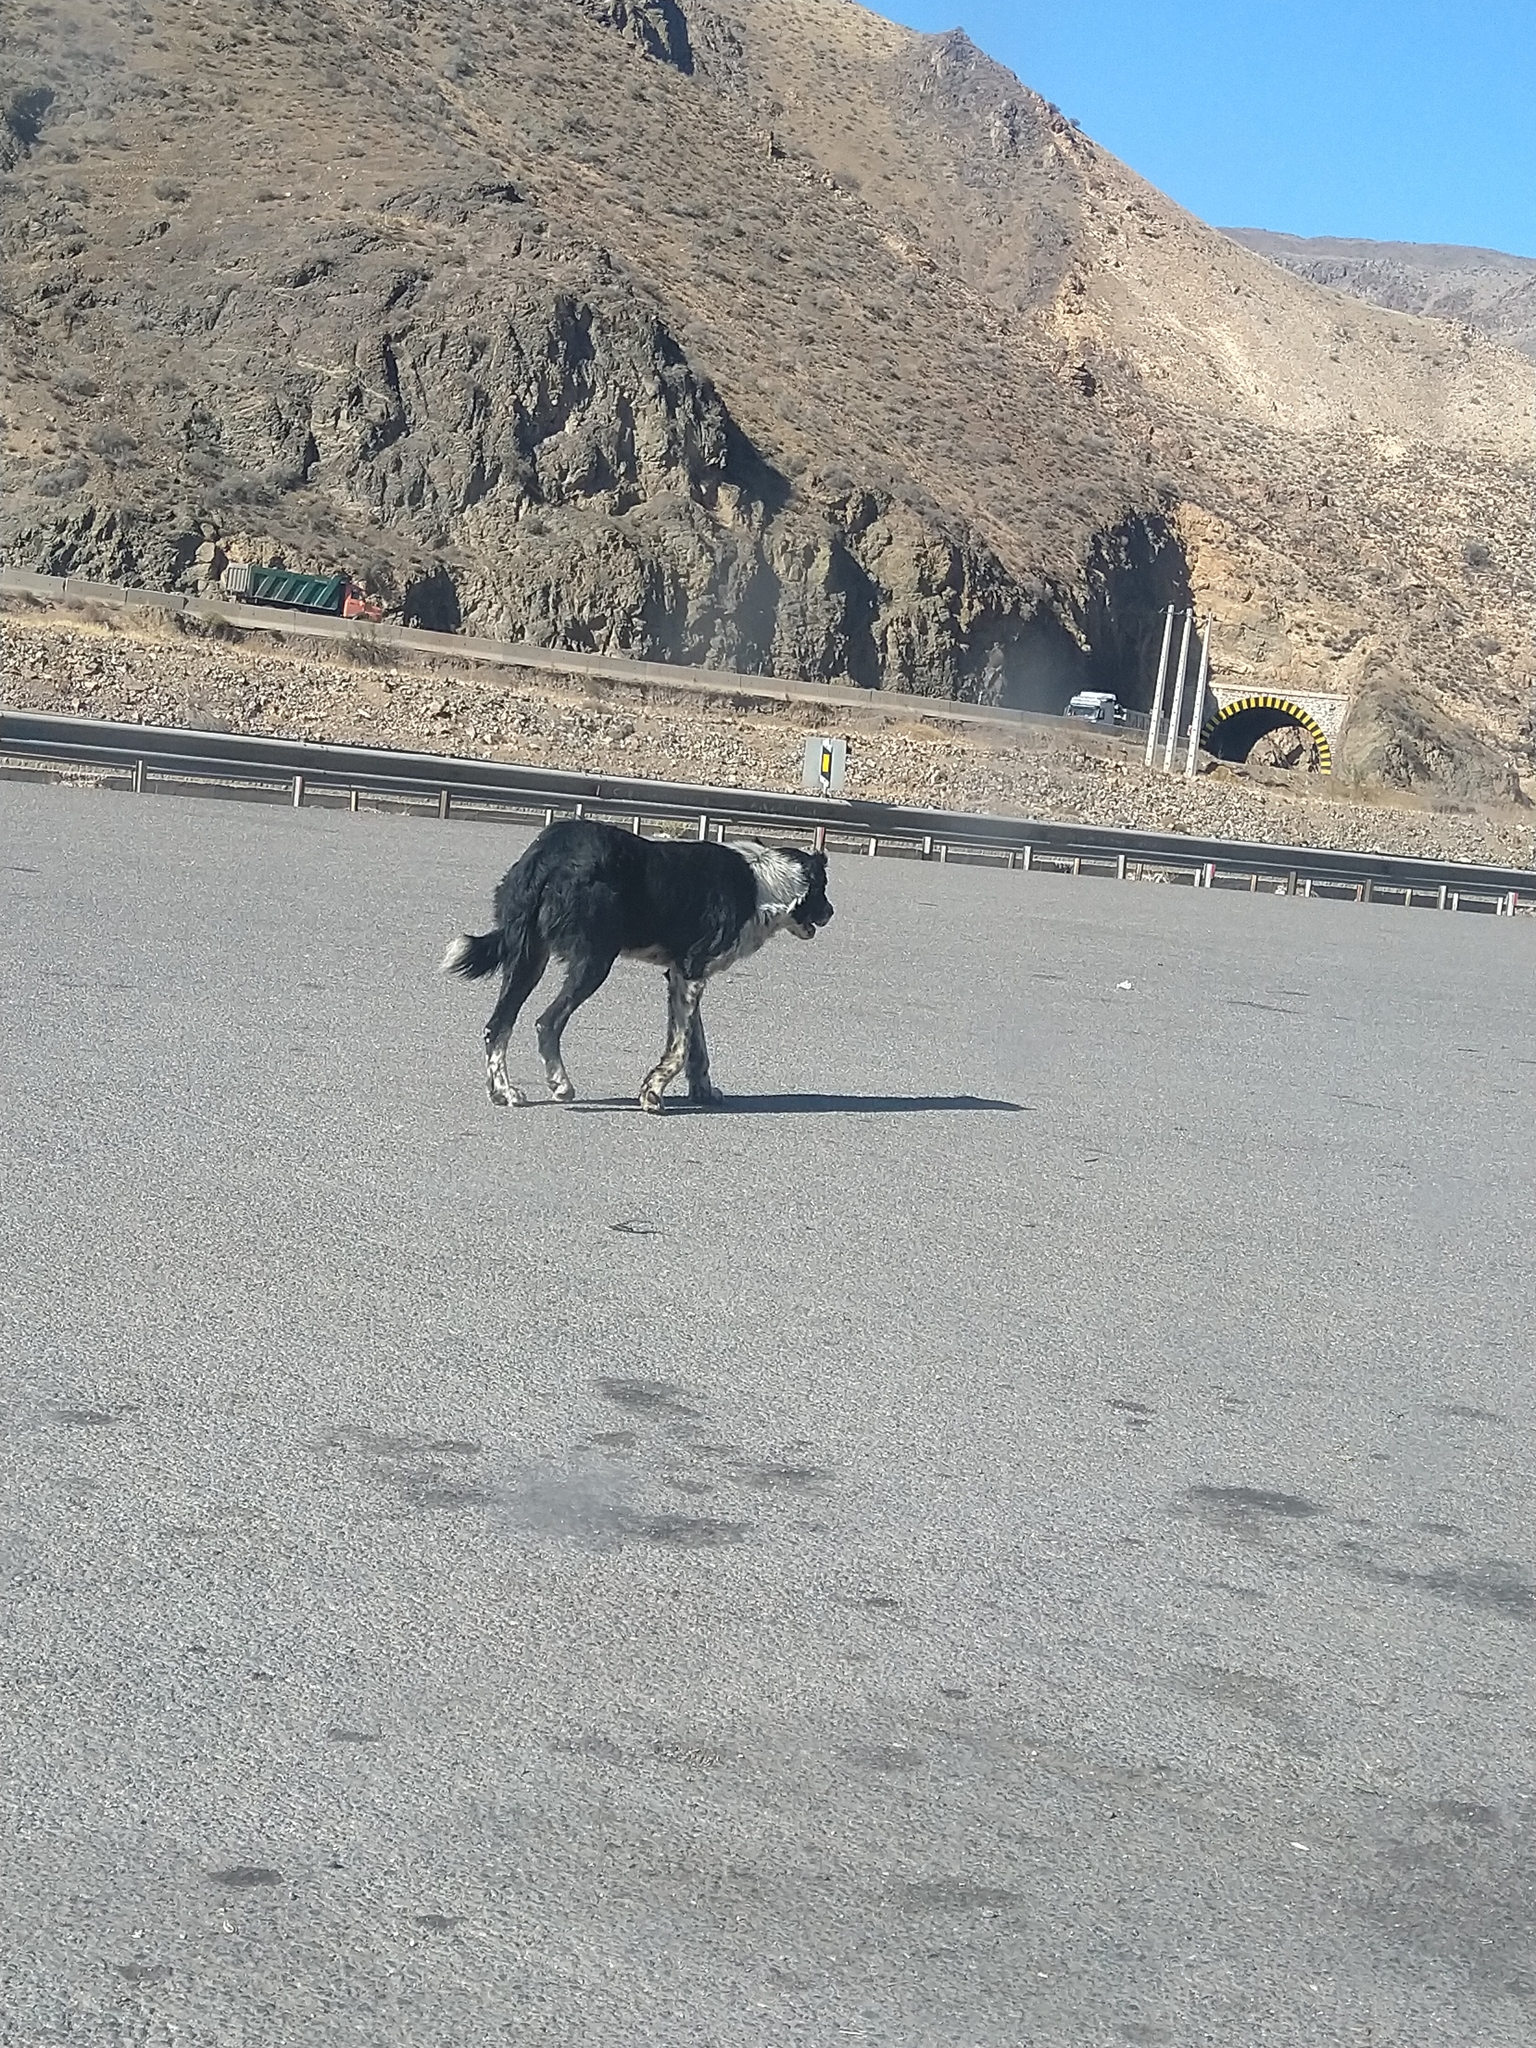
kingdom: Animalia
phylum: Chordata
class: Mammalia
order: Carnivora
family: Canidae
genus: Canis
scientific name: Canis lupus
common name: Gray wolf
